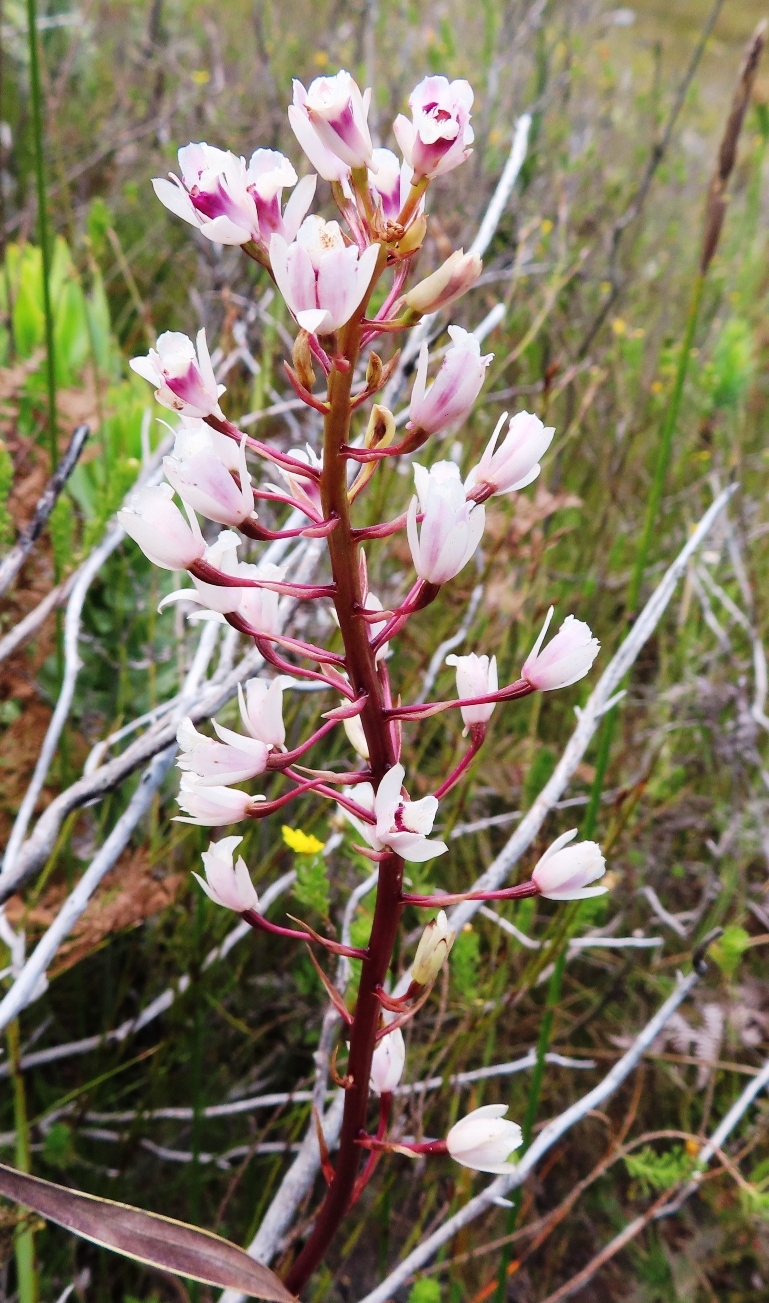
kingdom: Plantae
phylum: Tracheophyta
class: Liliopsida
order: Asparagales
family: Orchidaceae
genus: Eulophia
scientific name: Eulophia barbata
